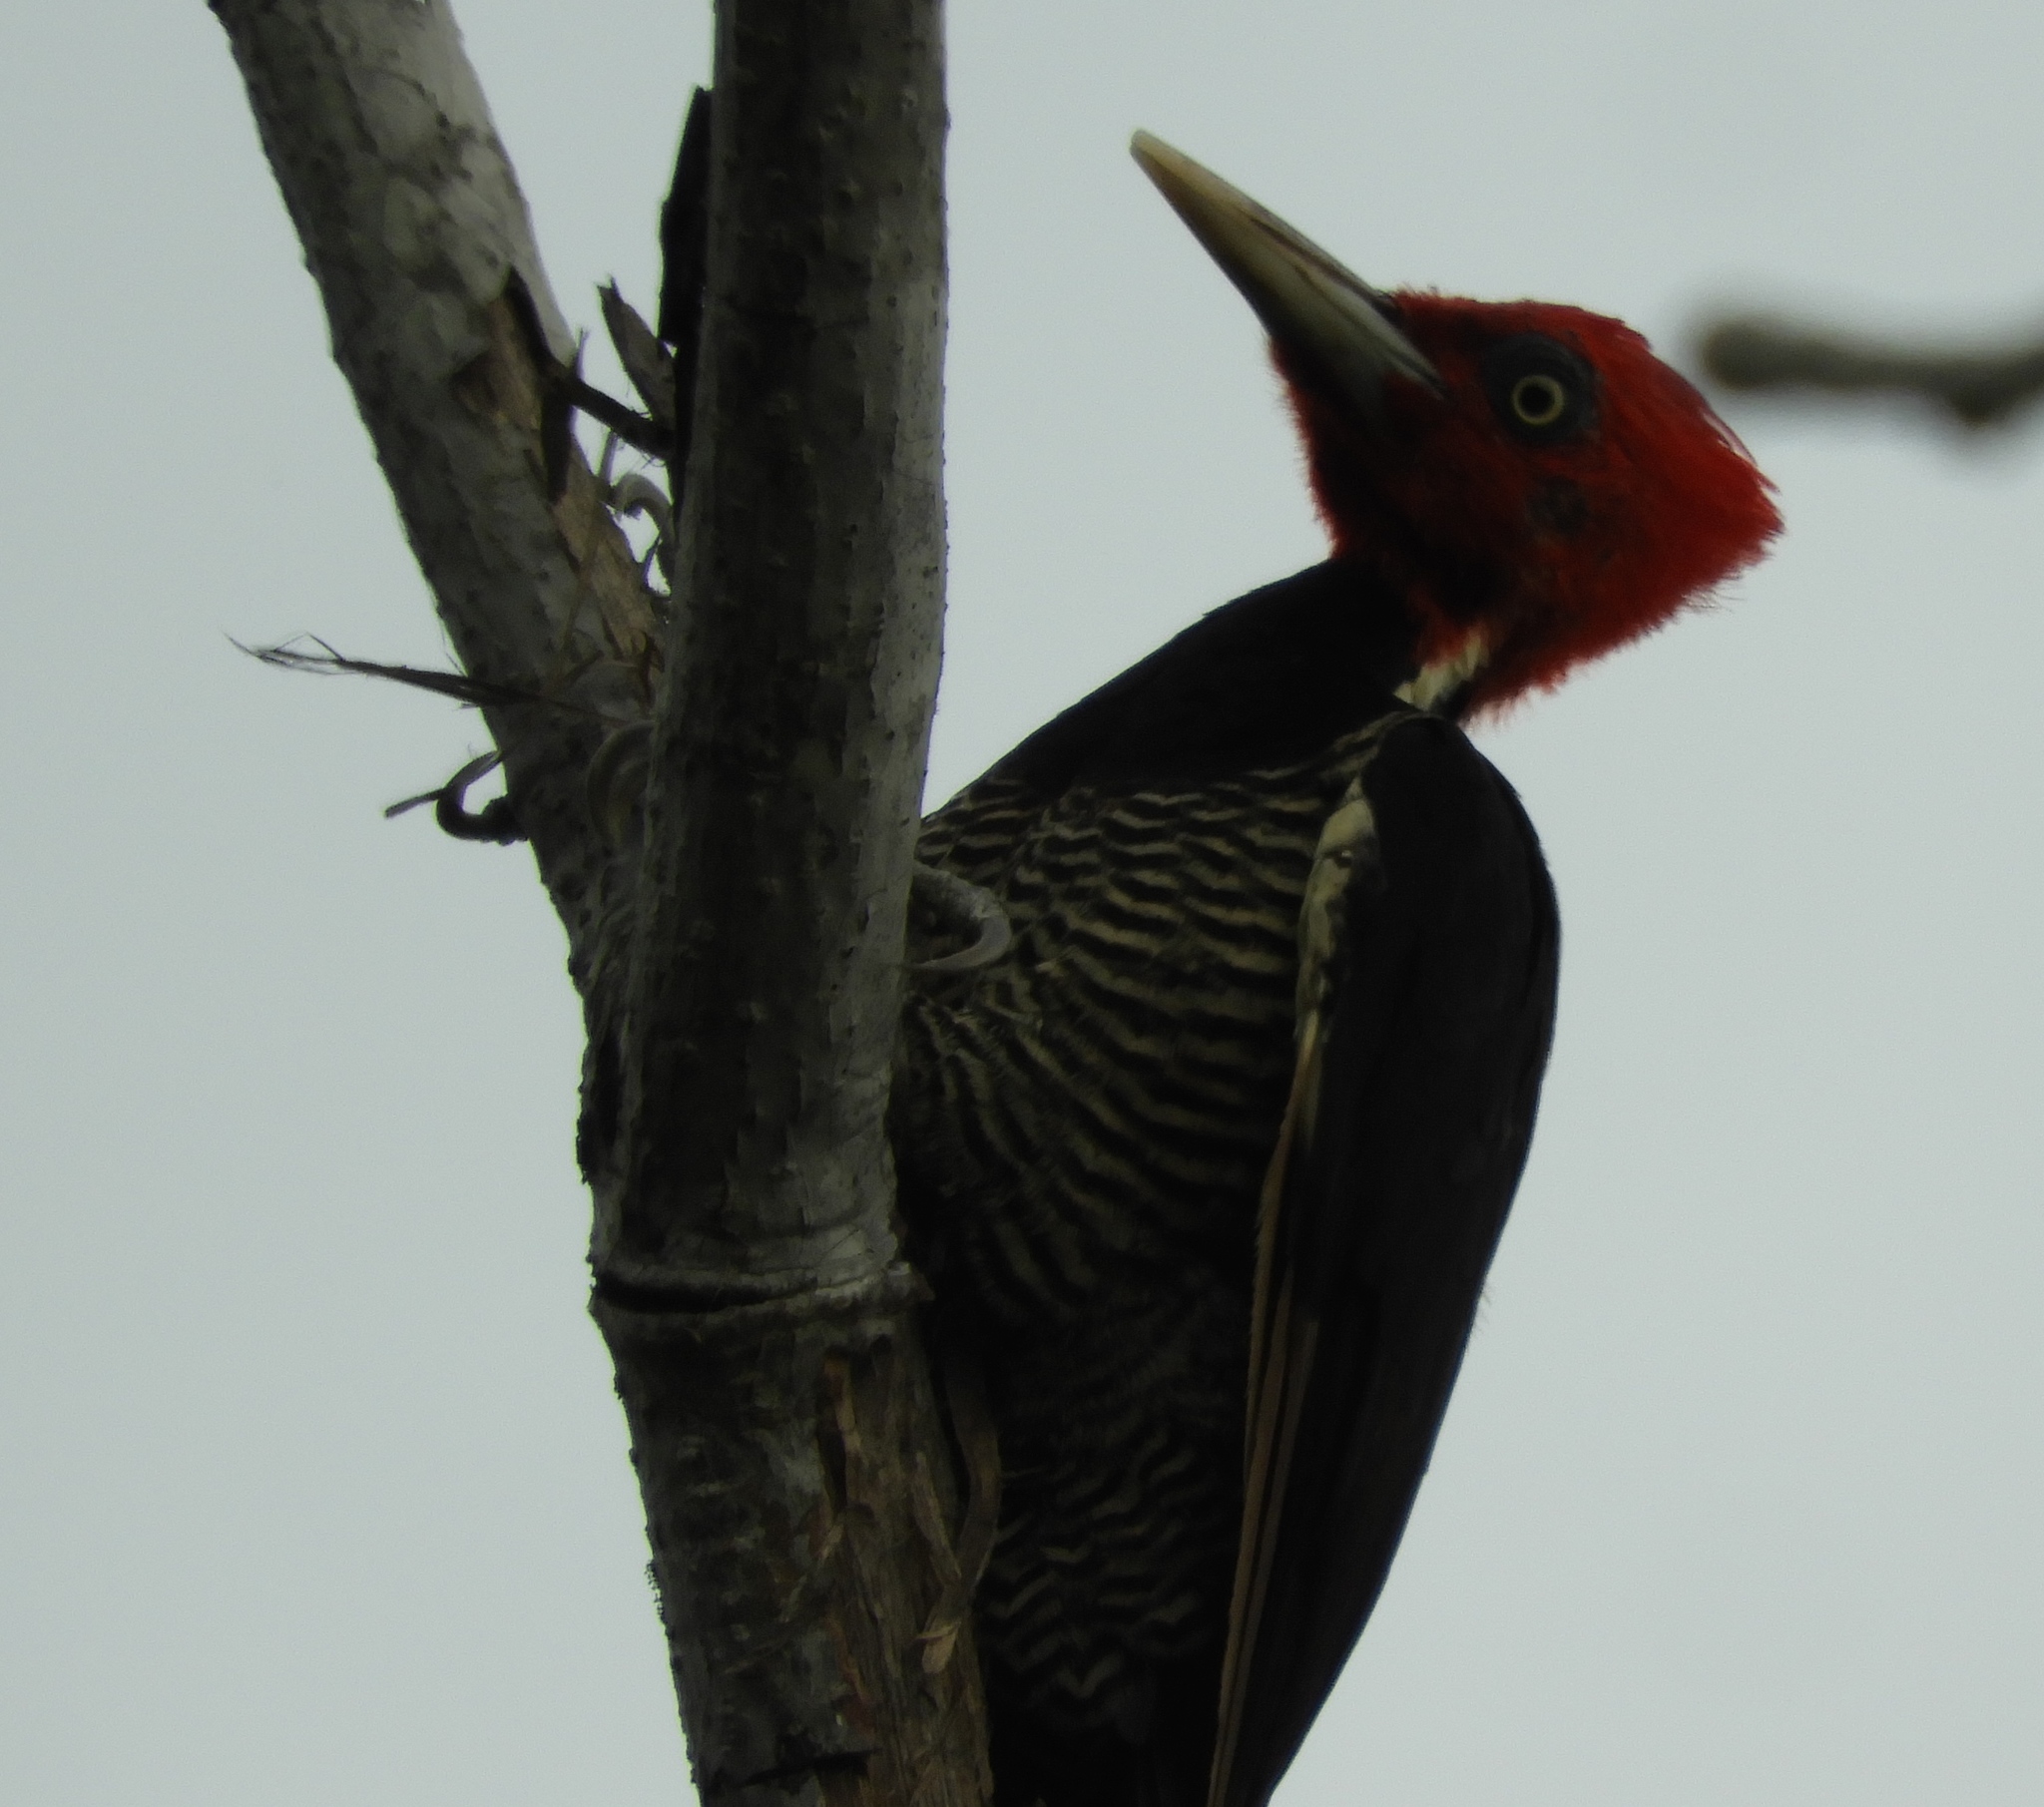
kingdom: Animalia
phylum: Chordata
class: Aves
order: Piciformes
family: Picidae
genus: Campephilus
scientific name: Campephilus guatemalensis
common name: Pale-billed woodpecker
